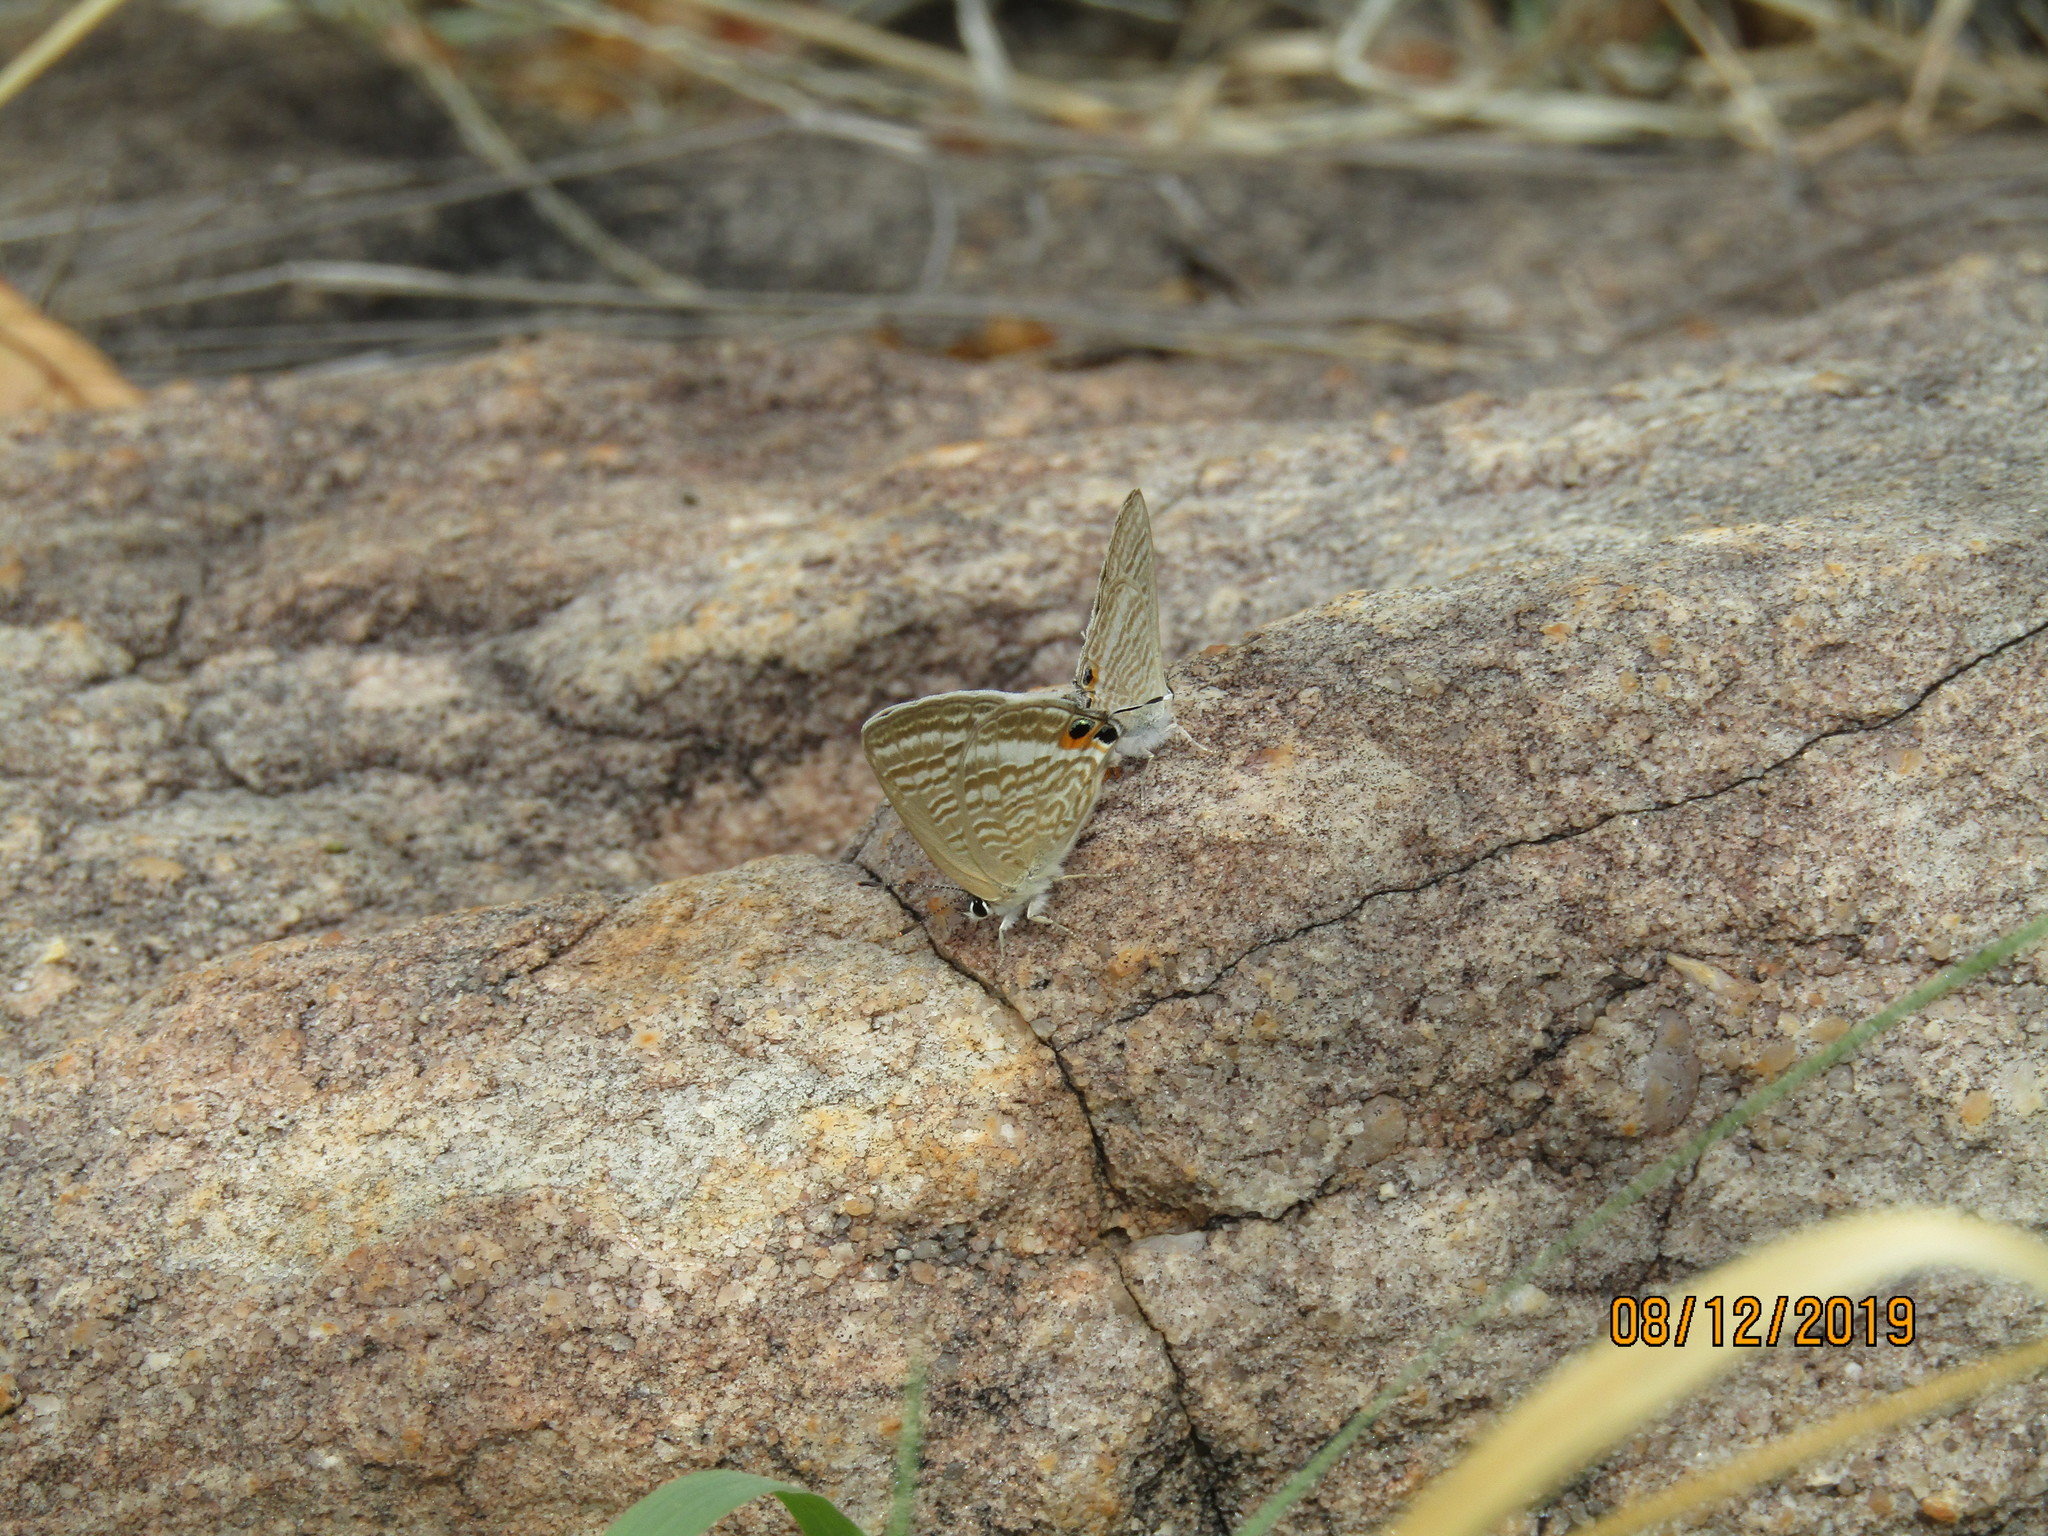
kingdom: Animalia
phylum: Arthropoda
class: Insecta
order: Lepidoptera
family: Lycaenidae
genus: Lampides
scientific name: Lampides boeticus
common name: Long-tailed blue
